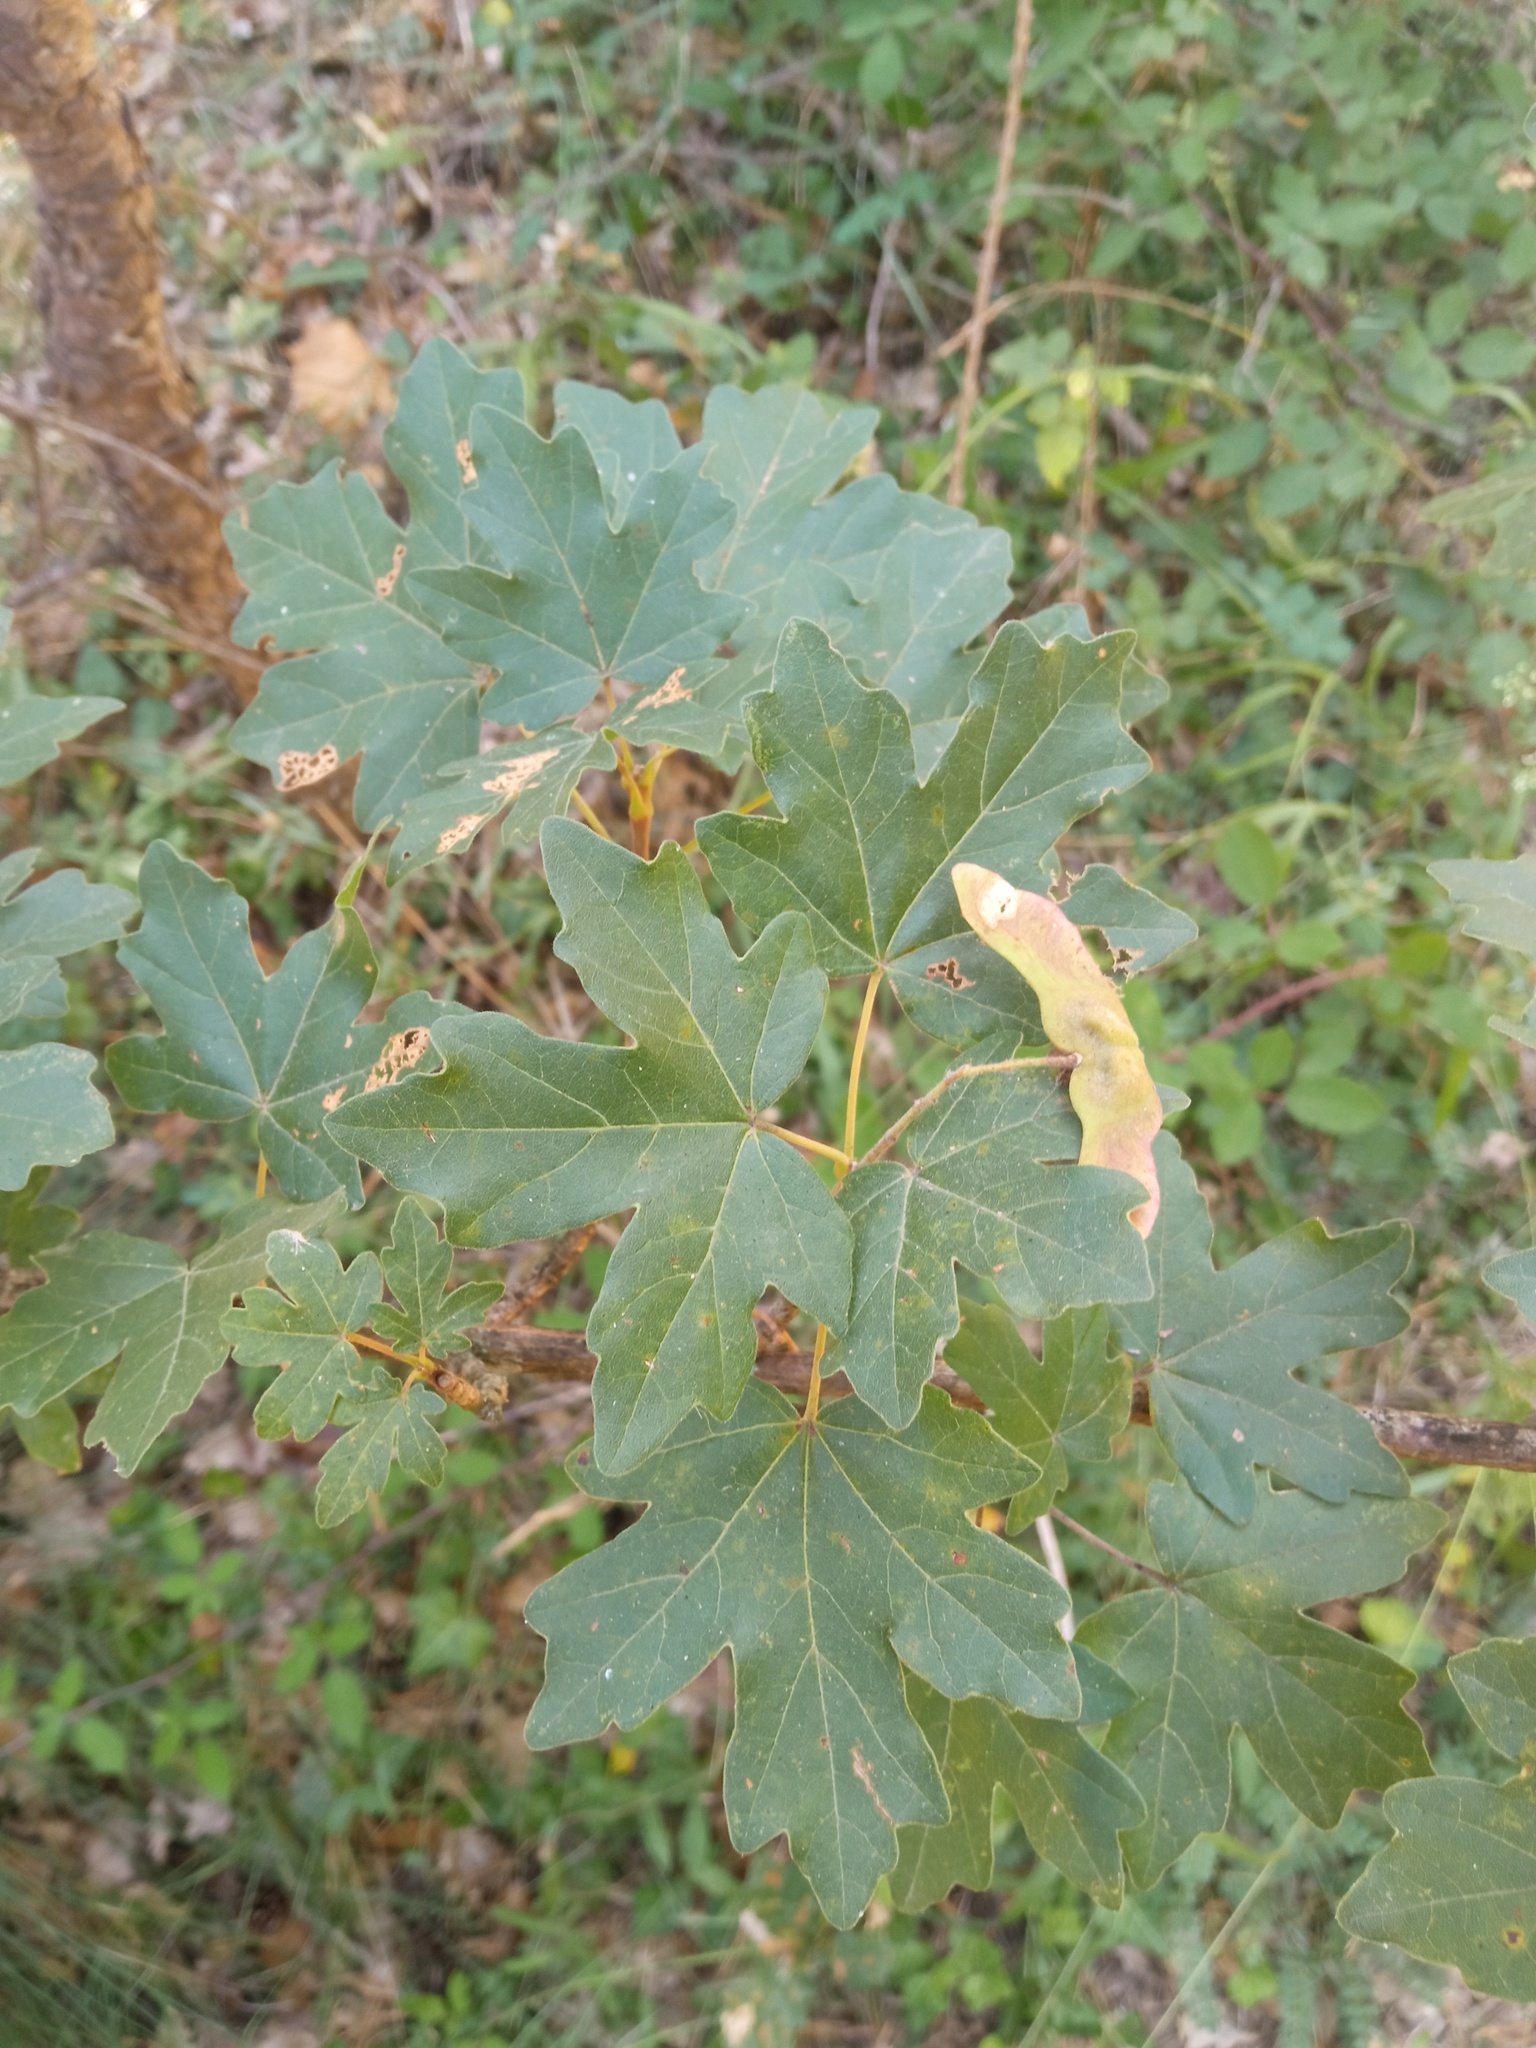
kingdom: Plantae
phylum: Tracheophyta
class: Magnoliopsida
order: Sapindales
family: Sapindaceae
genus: Acer
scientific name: Acer campestre
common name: Field maple
